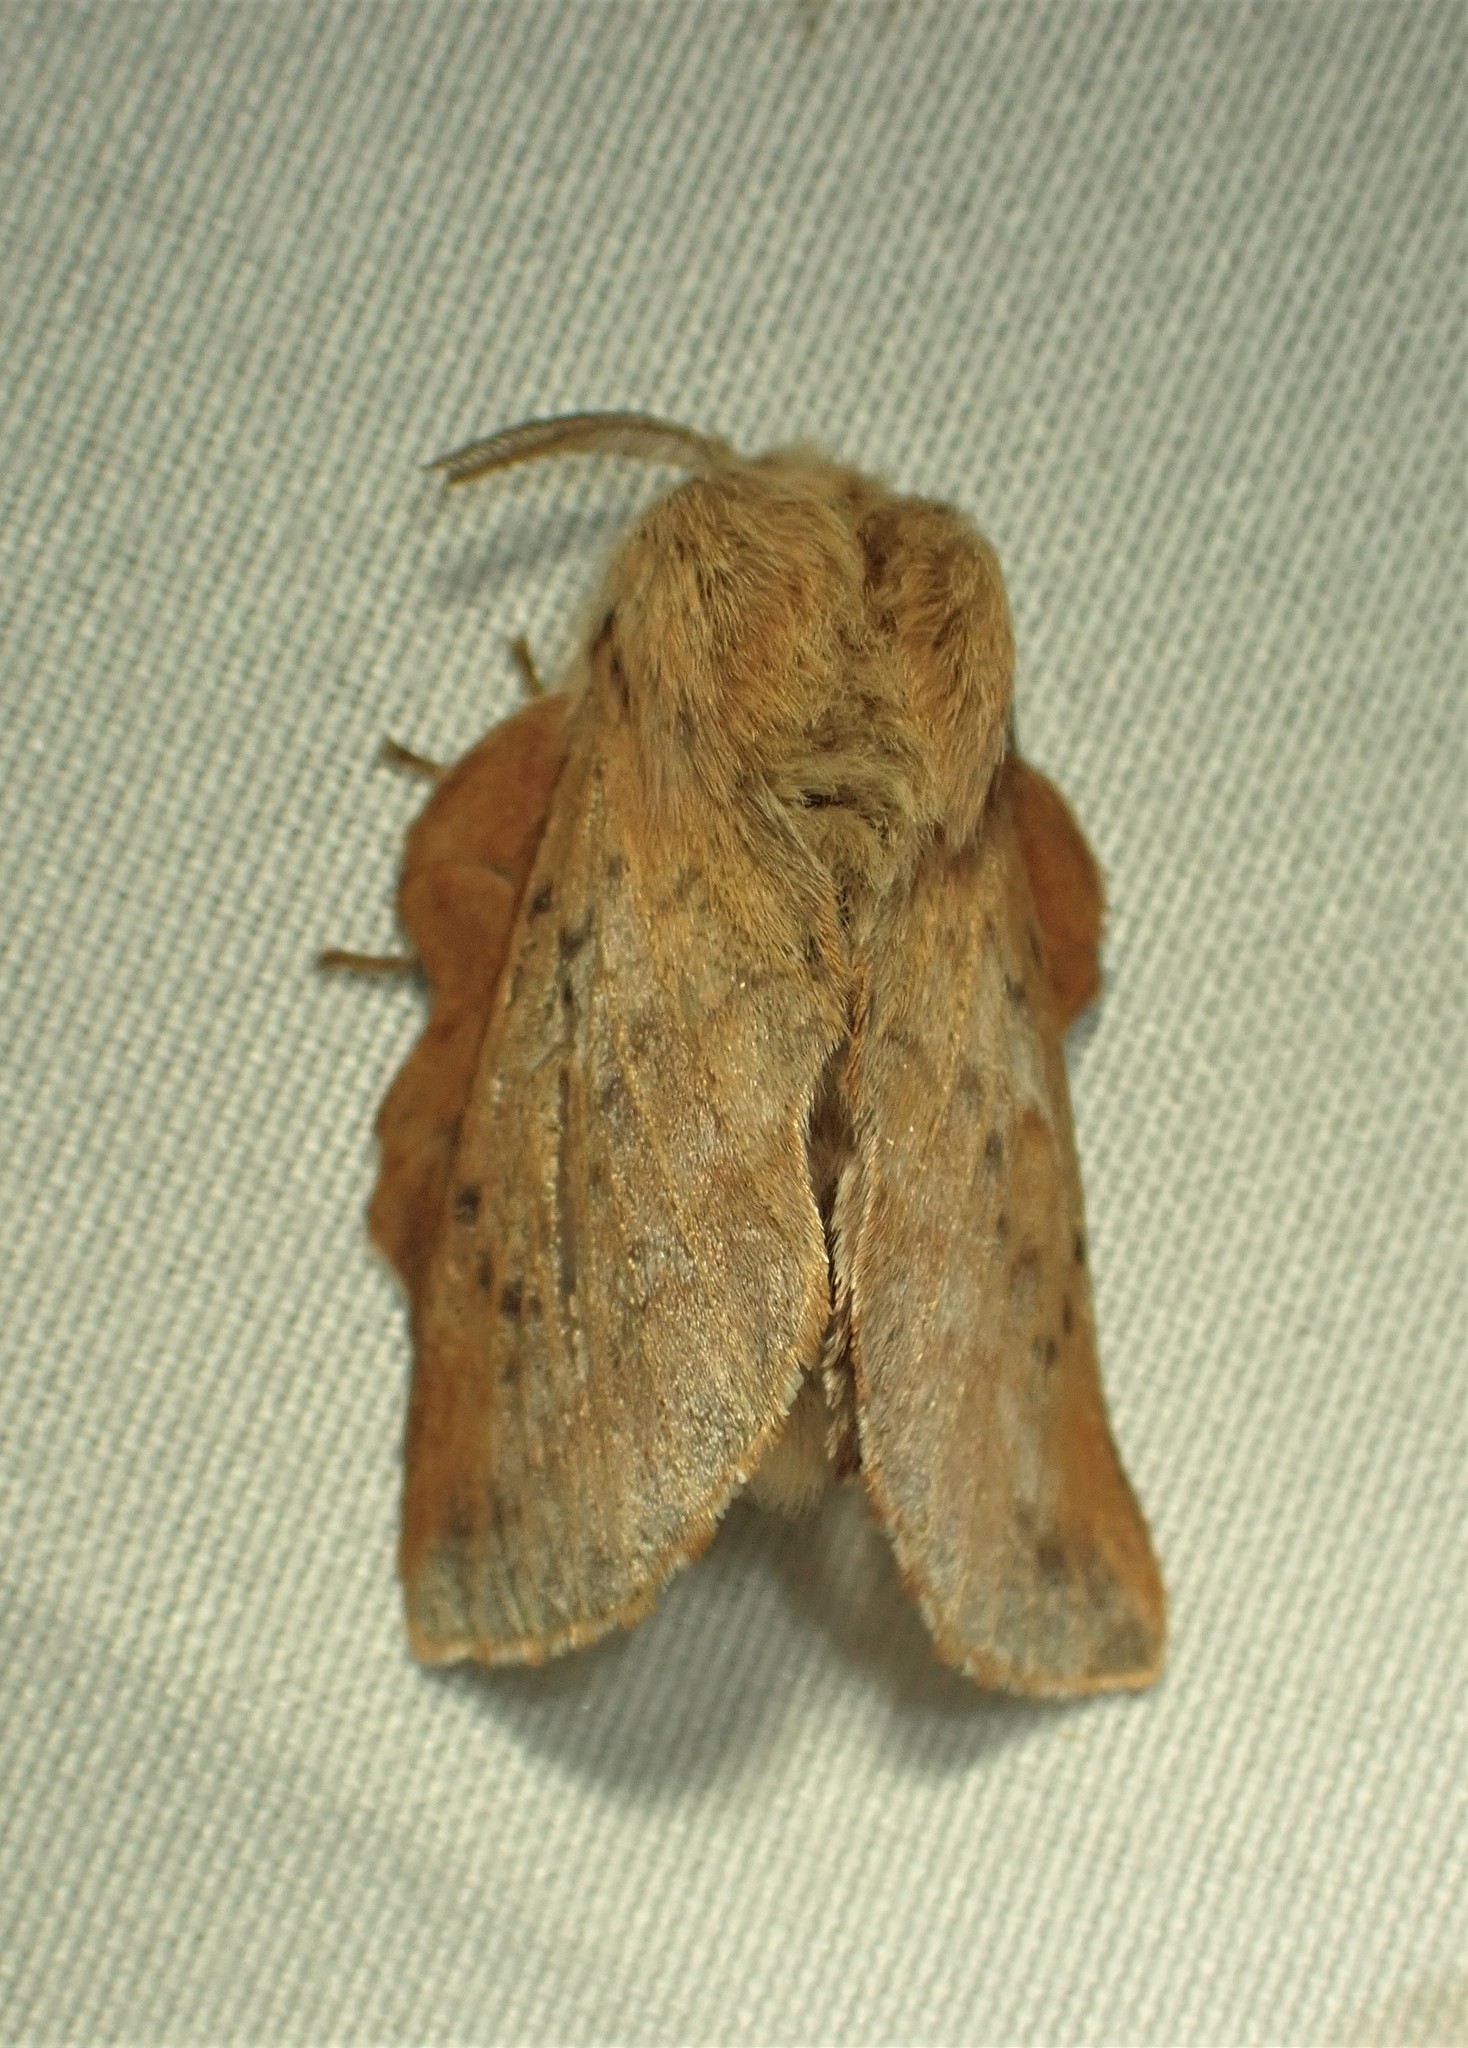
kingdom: Animalia
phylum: Arthropoda
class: Insecta
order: Lepidoptera
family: Lasiocampidae
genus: Phyllodesma
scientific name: Phyllodesma americana
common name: American lappet moth
